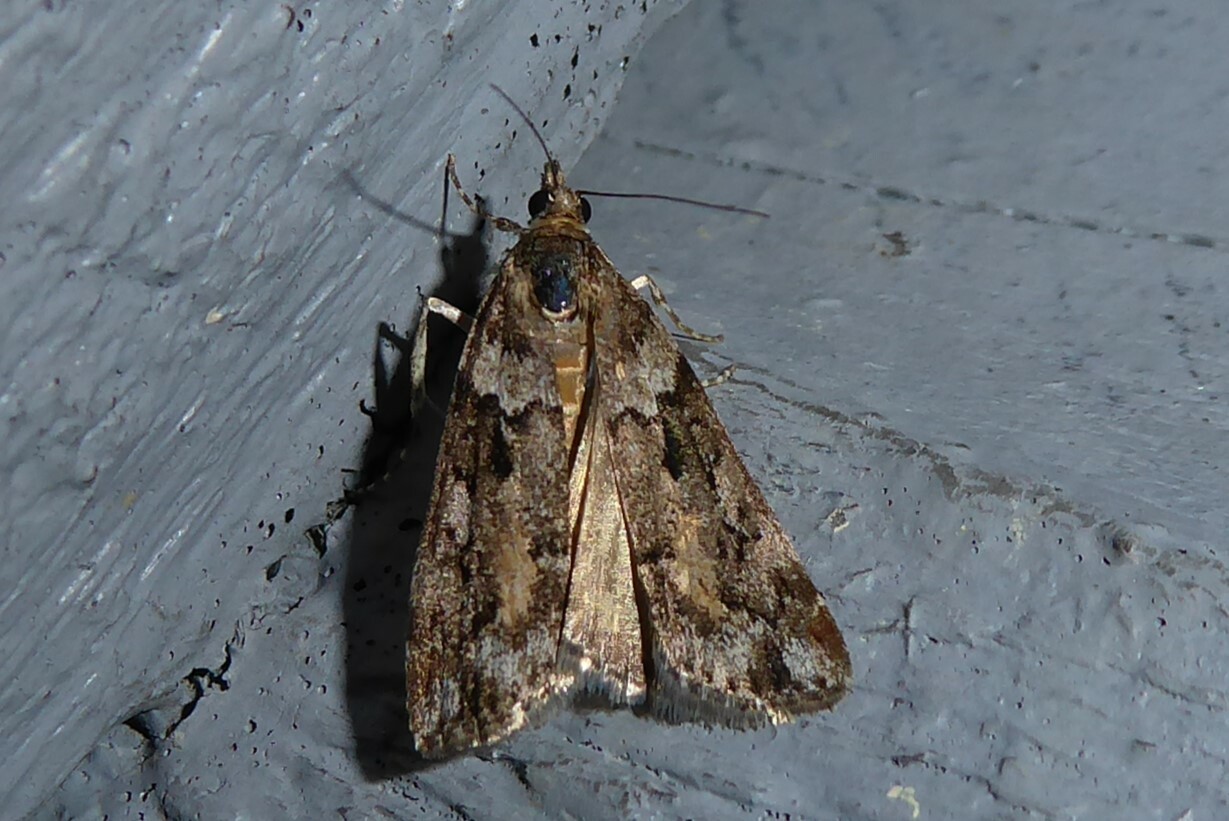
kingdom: Animalia
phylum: Arthropoda
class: Insecta
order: Lepidoptera
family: Crambidae
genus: Eudonia
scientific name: Eudonia submarginalis
